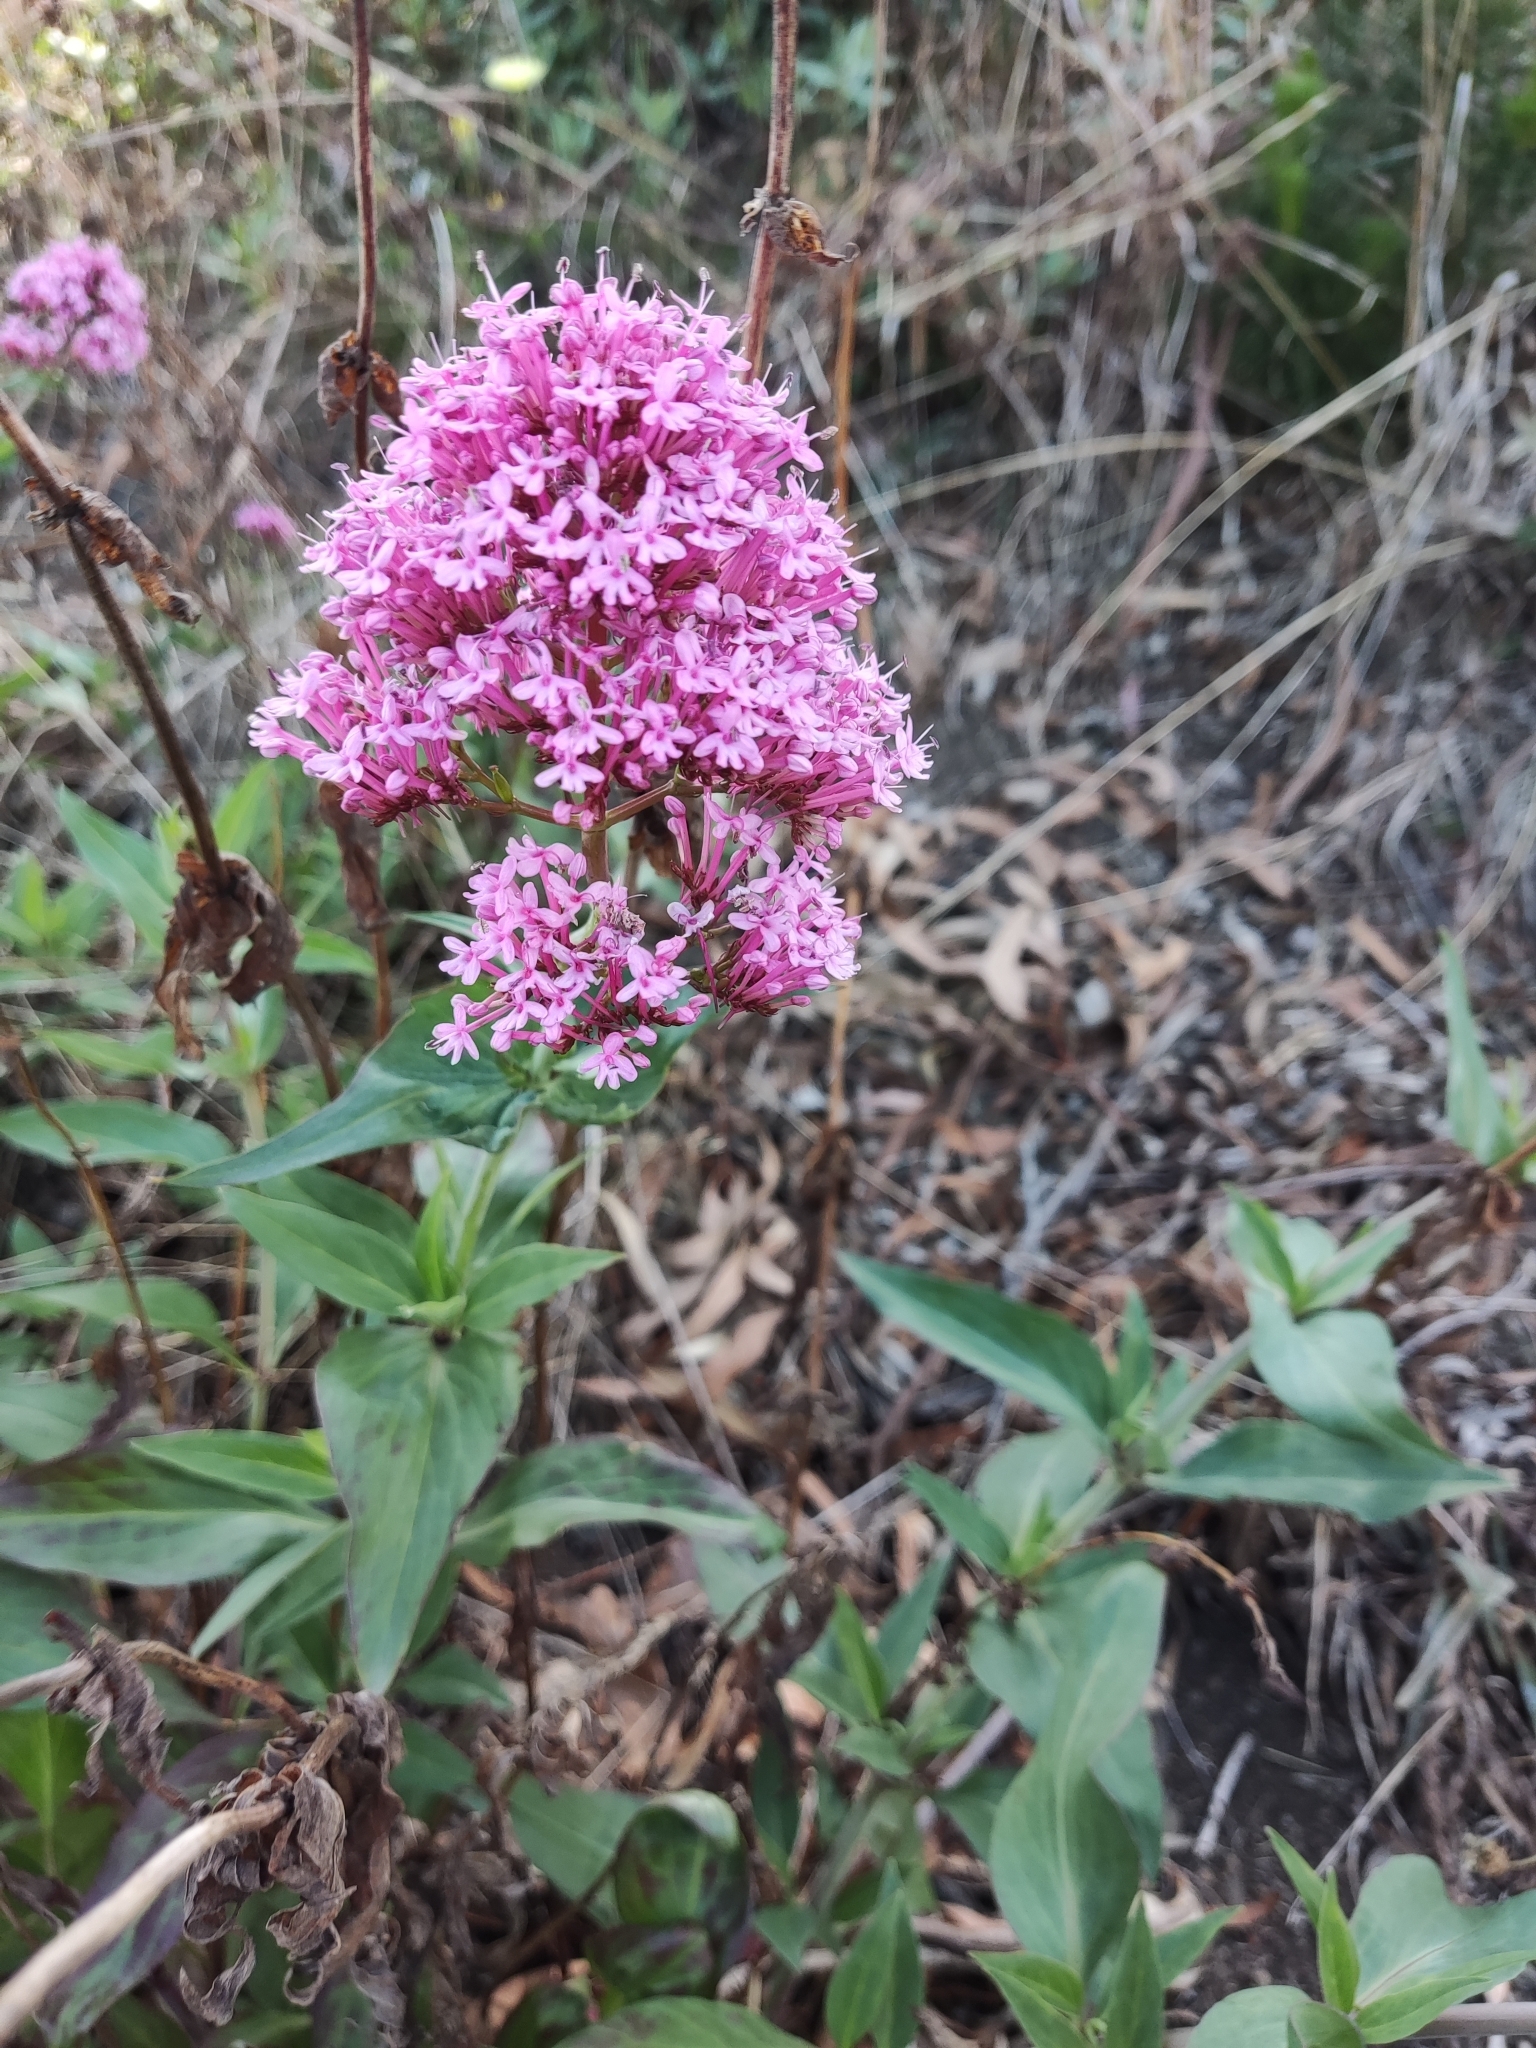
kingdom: Plantae
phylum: Tracheophyta
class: Magnoliopsida
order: Dipsacales
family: Caprifoliaceae
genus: Centranthus
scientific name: Centranthus ruber
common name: Red valerian
